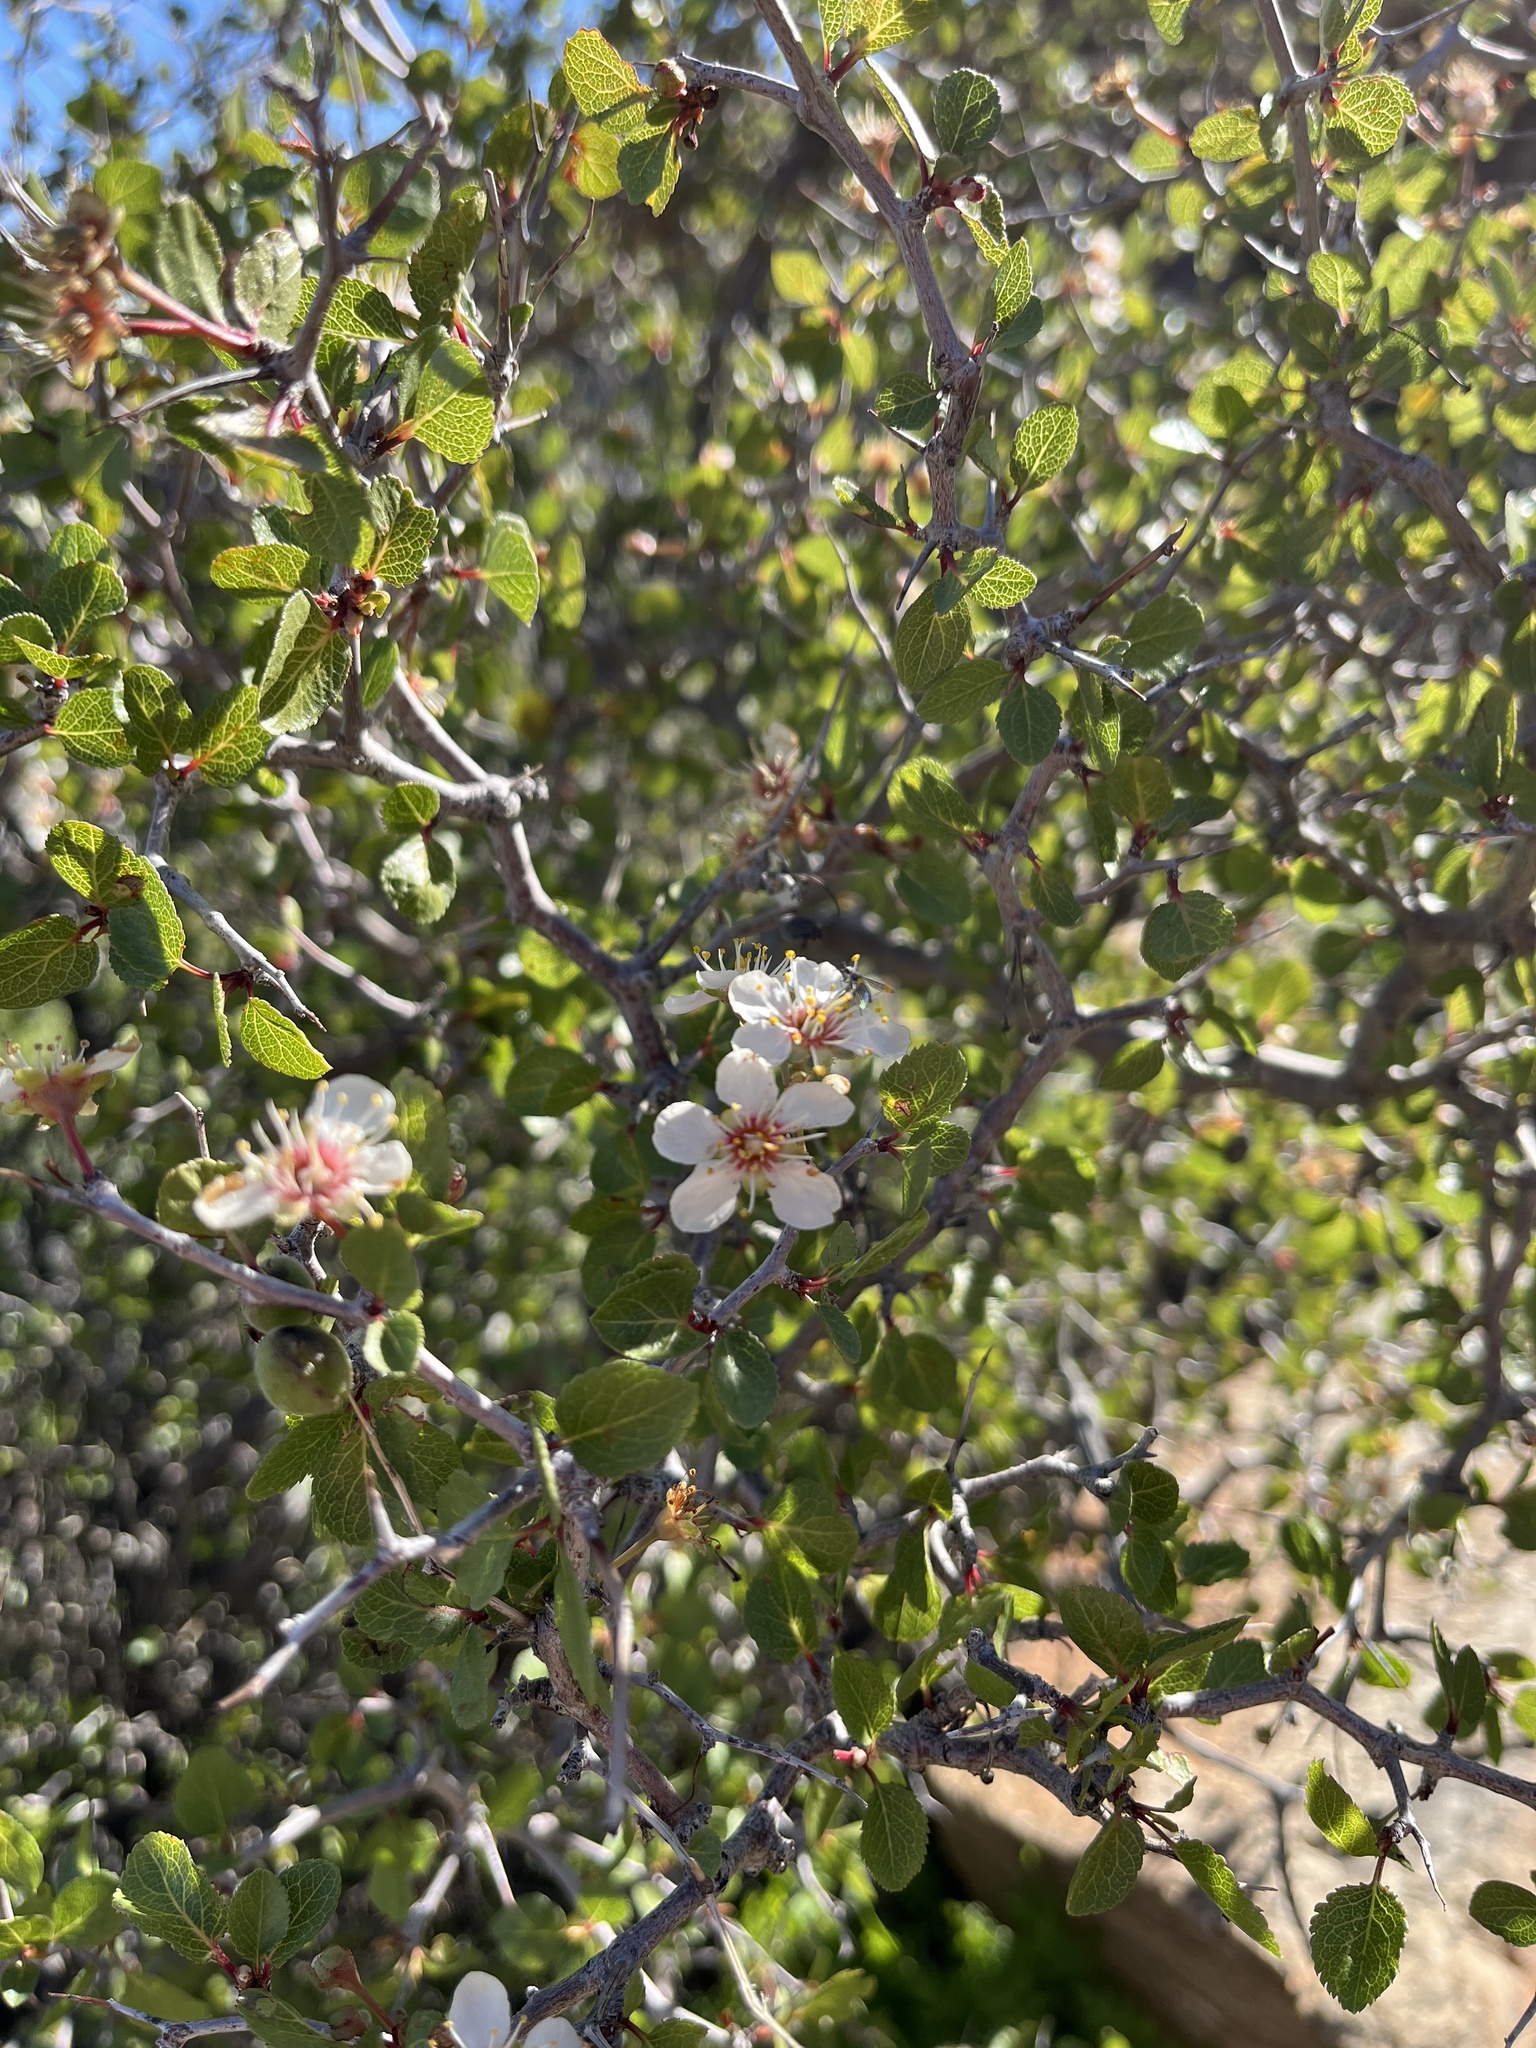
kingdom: Plantae
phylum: Tracheophyta
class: Magnoliopsida
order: Rosales
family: Rosaceae
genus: Prunus
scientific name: Prunus fremontii
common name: Desert apricot
